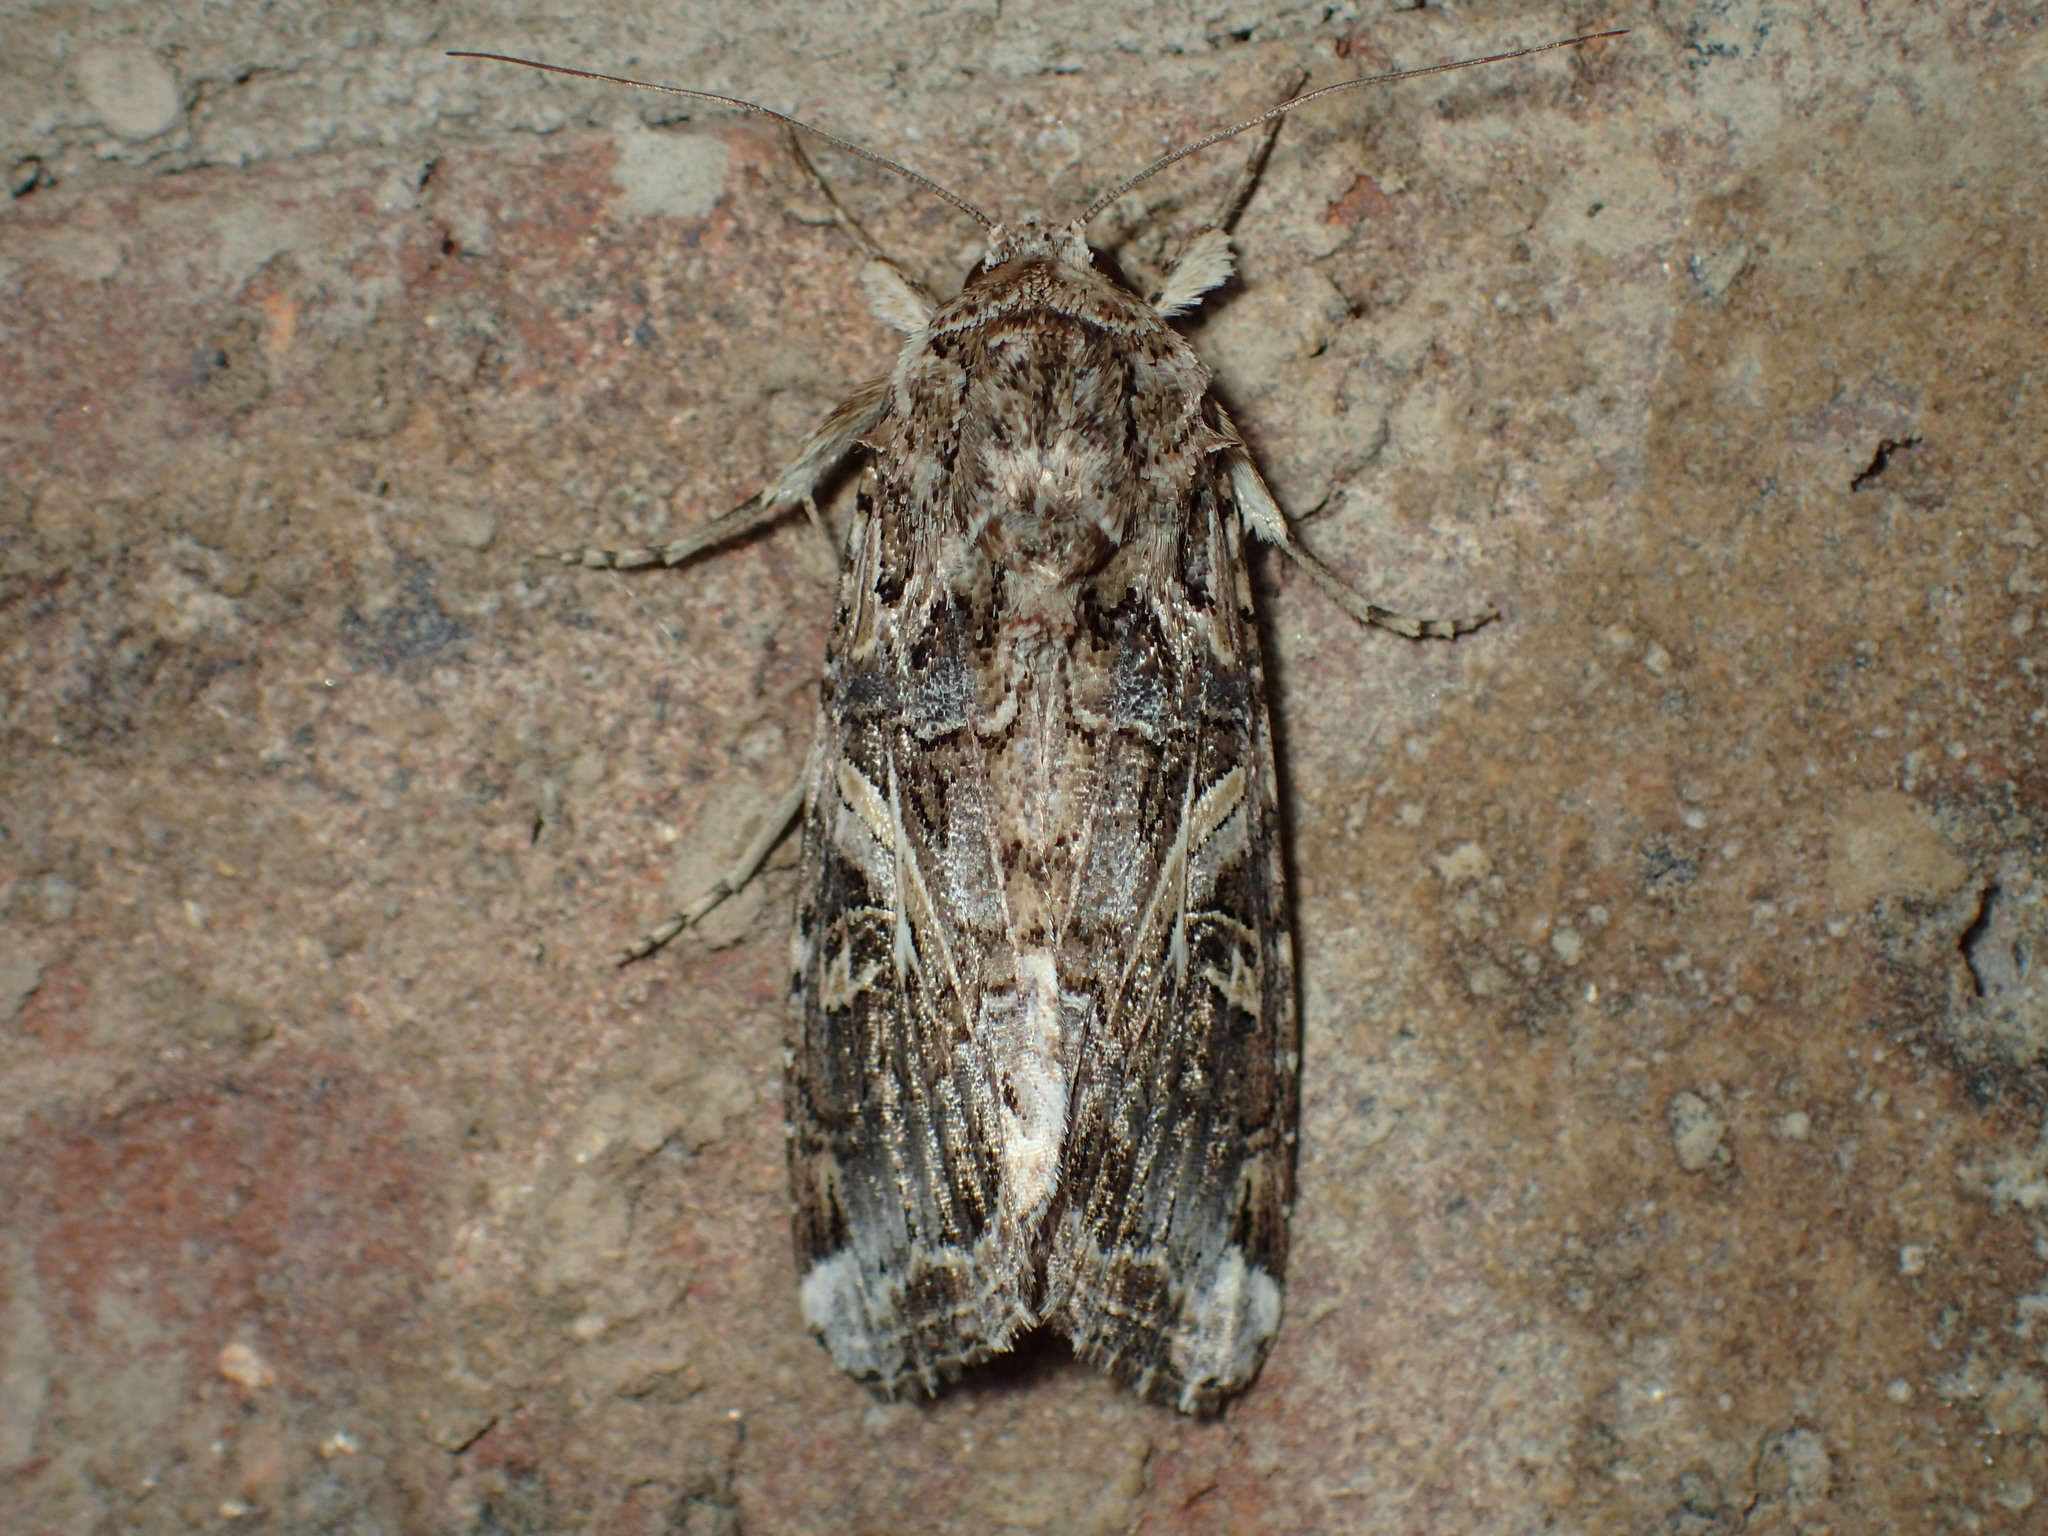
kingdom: Animalia
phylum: Arthropoda
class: Insecta
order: Lepidoptera
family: Noctuidae
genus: Spodoptera
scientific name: Spodoptera ornithogalli
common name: Yellow-striped armyworm
